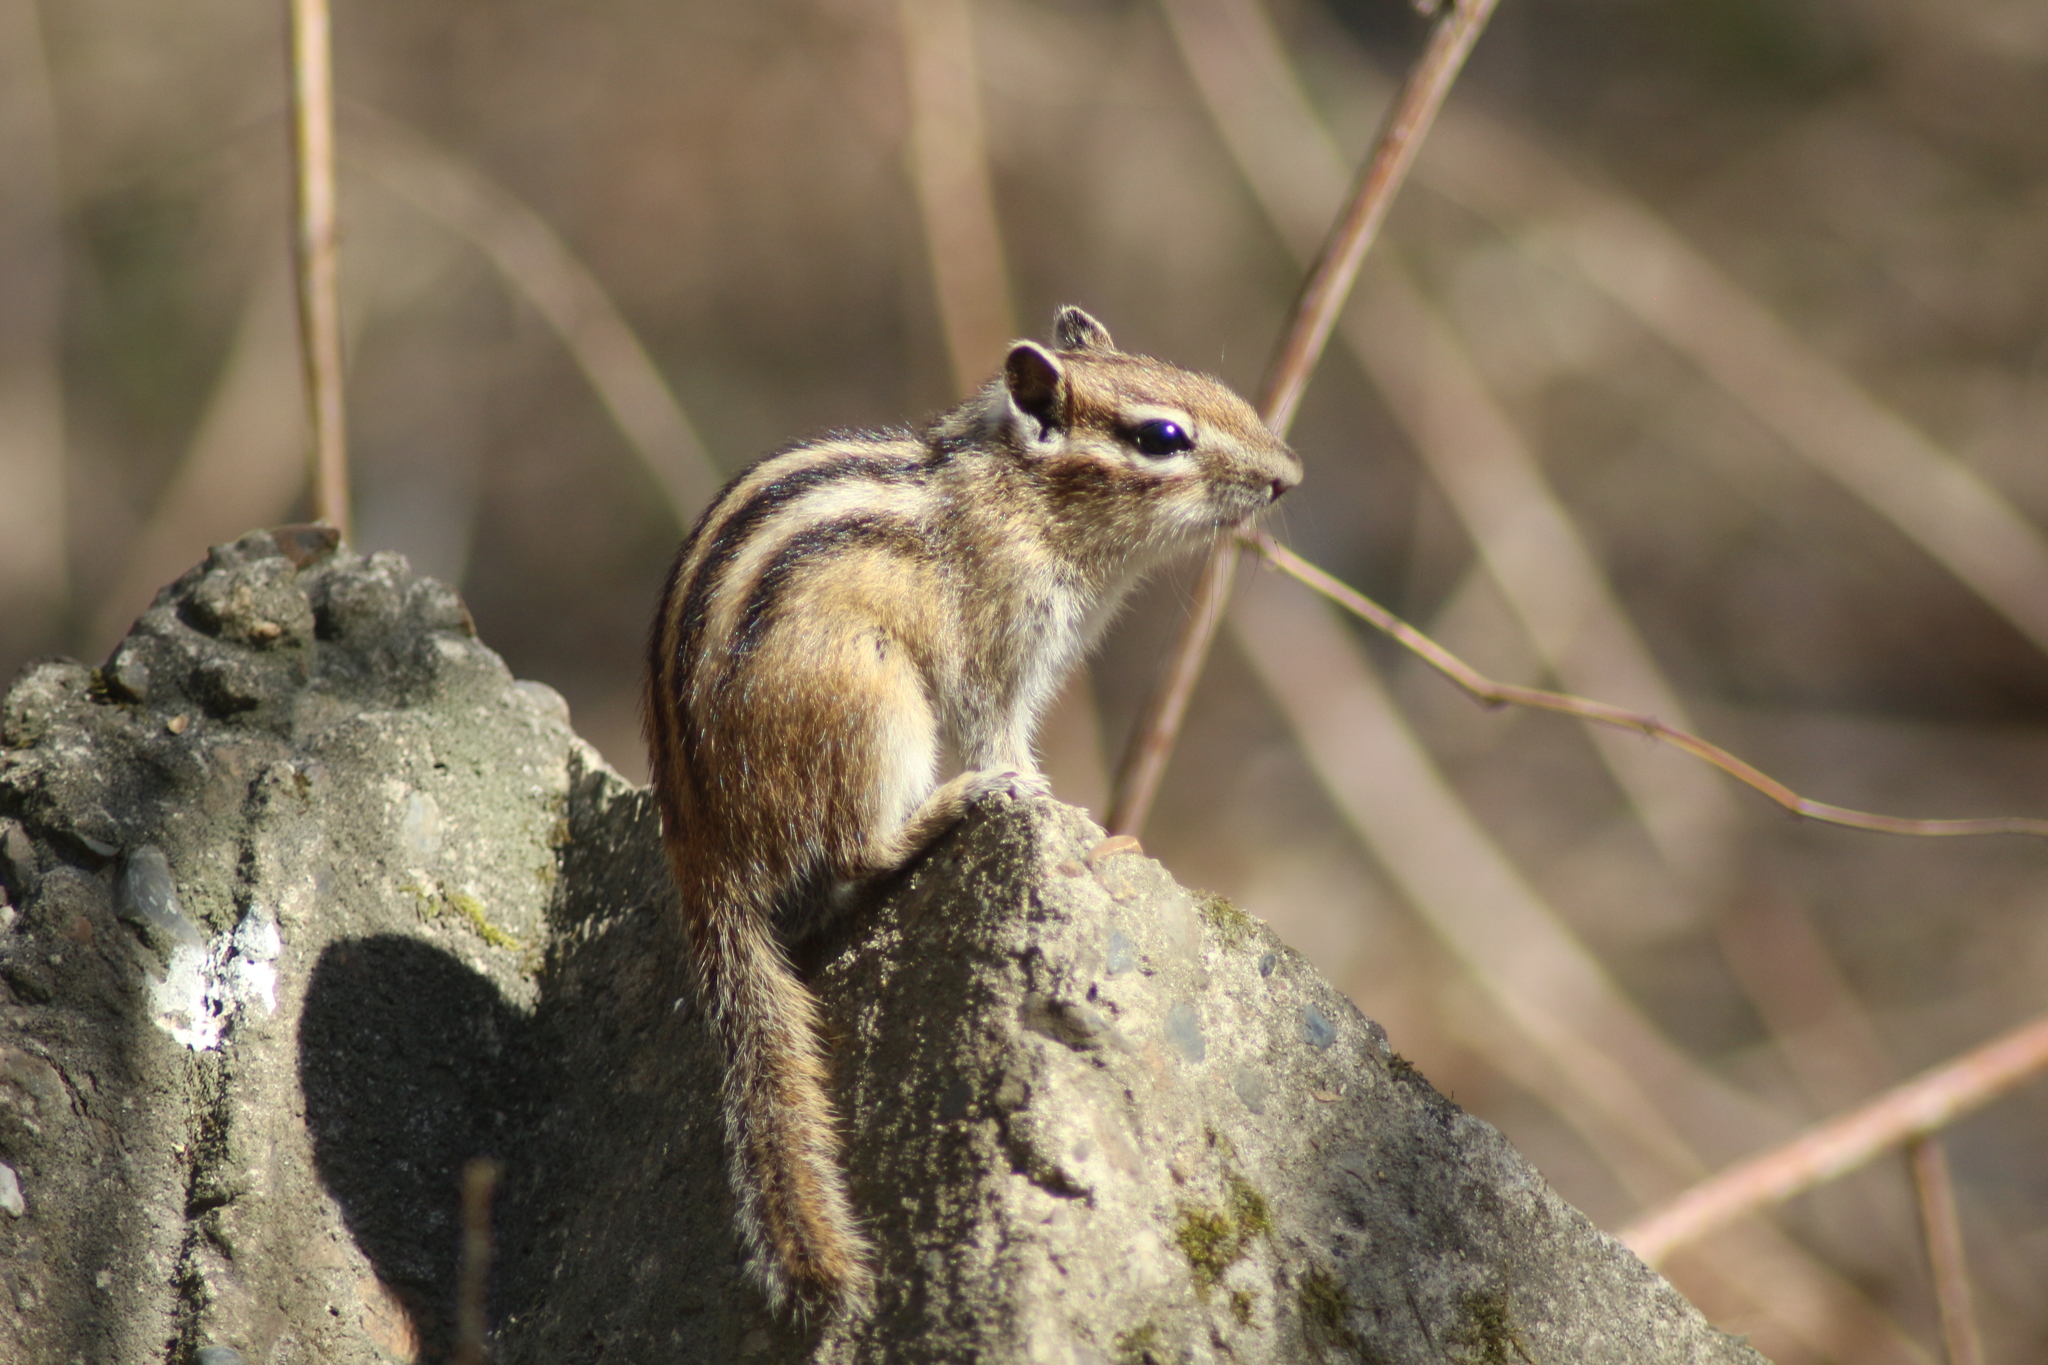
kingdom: Animalia
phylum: Chordata
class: Mammalia
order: Rodentia
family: Sciuridae
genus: Tamias
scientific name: Tamias sibiricus
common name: Siberian chipmunk
